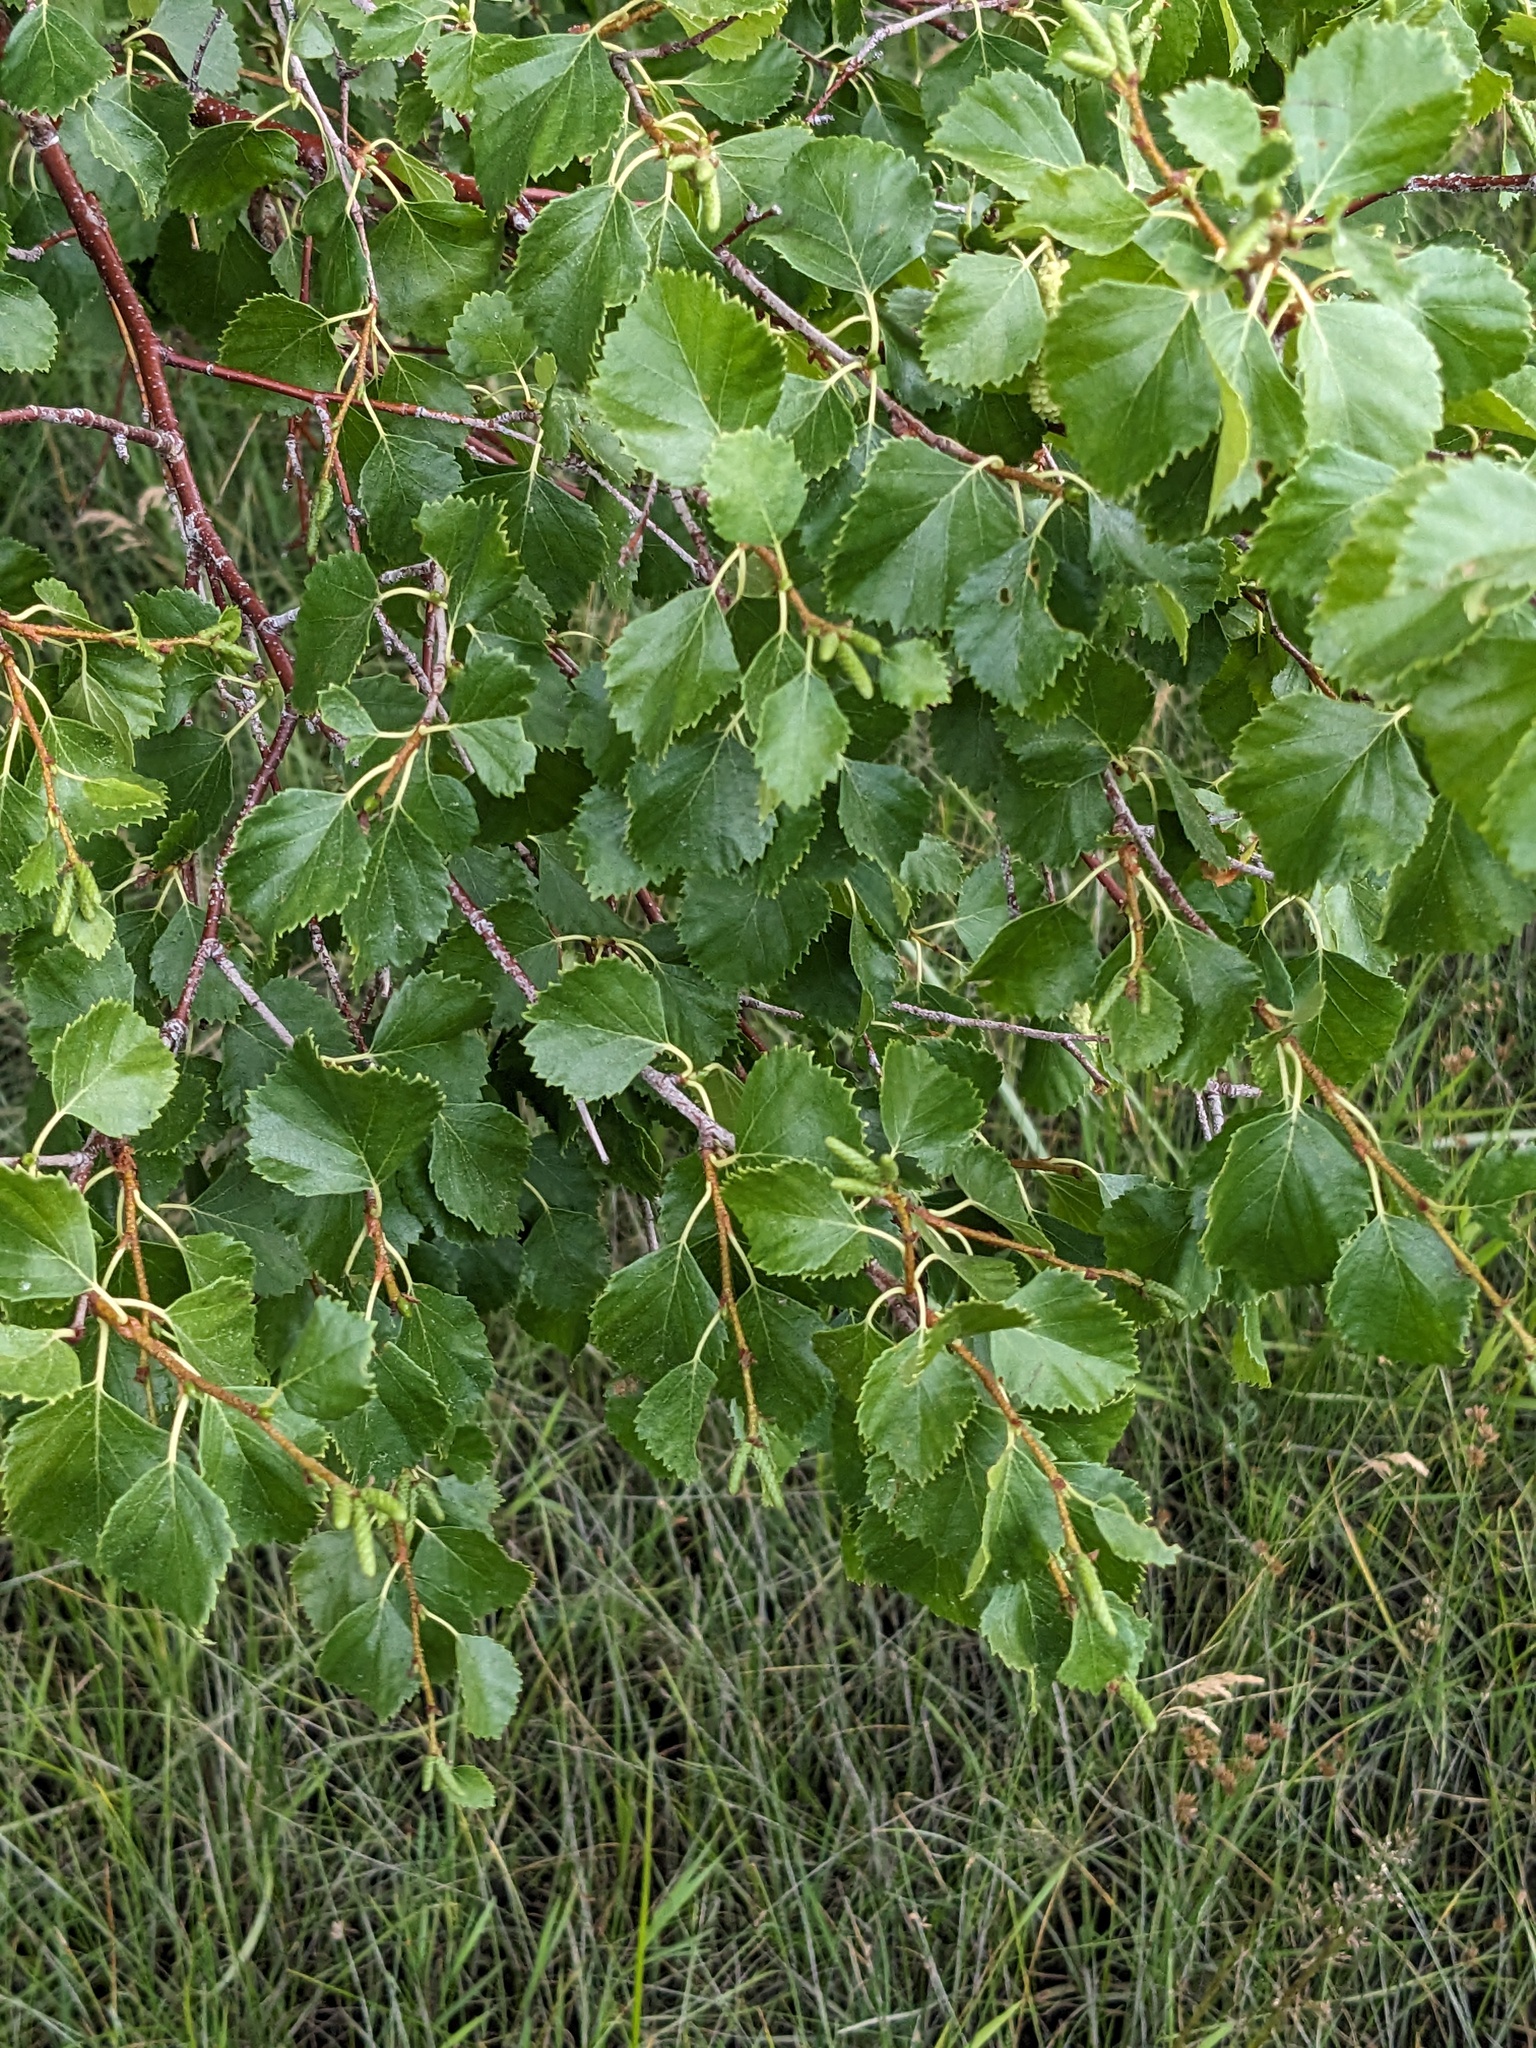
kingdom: Plantae
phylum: Tracheophyta
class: Magnoliopsida
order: Fagales
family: Betulaceae
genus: Betula
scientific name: Betula occidentalis
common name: River birch
